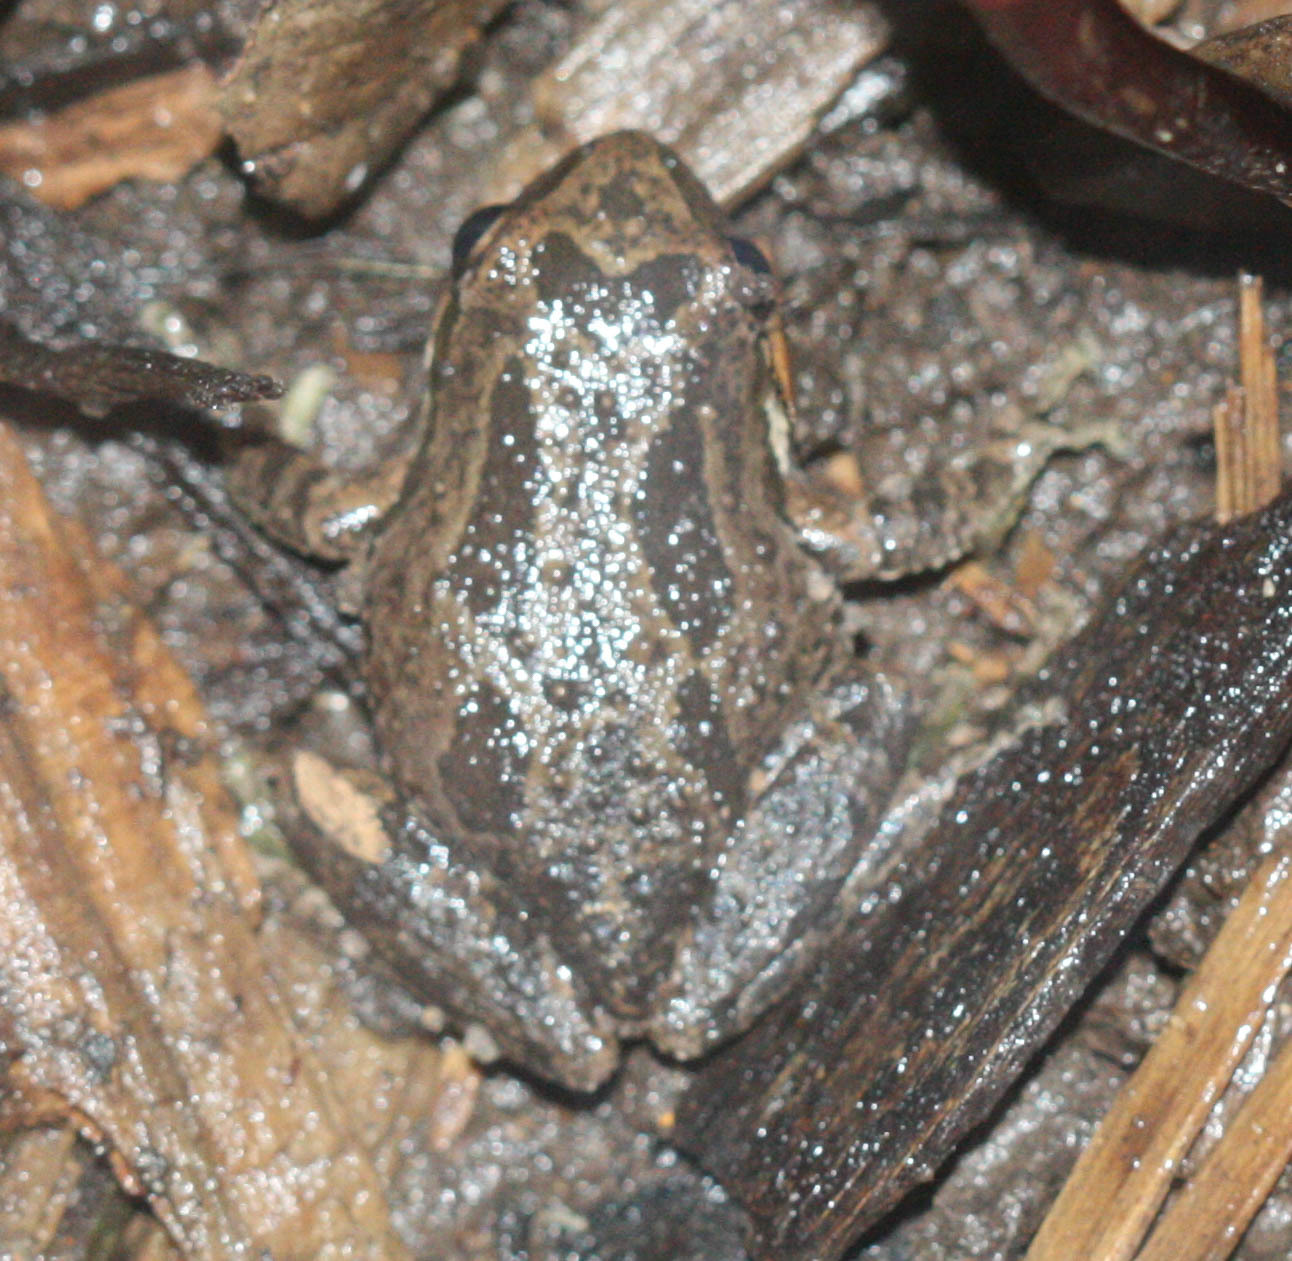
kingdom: Animalia
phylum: Chordata
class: Amphibia
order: Anura
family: Hylidae
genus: Pseudacris
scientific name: Pseudacris regilla
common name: Pacific chorus frog
